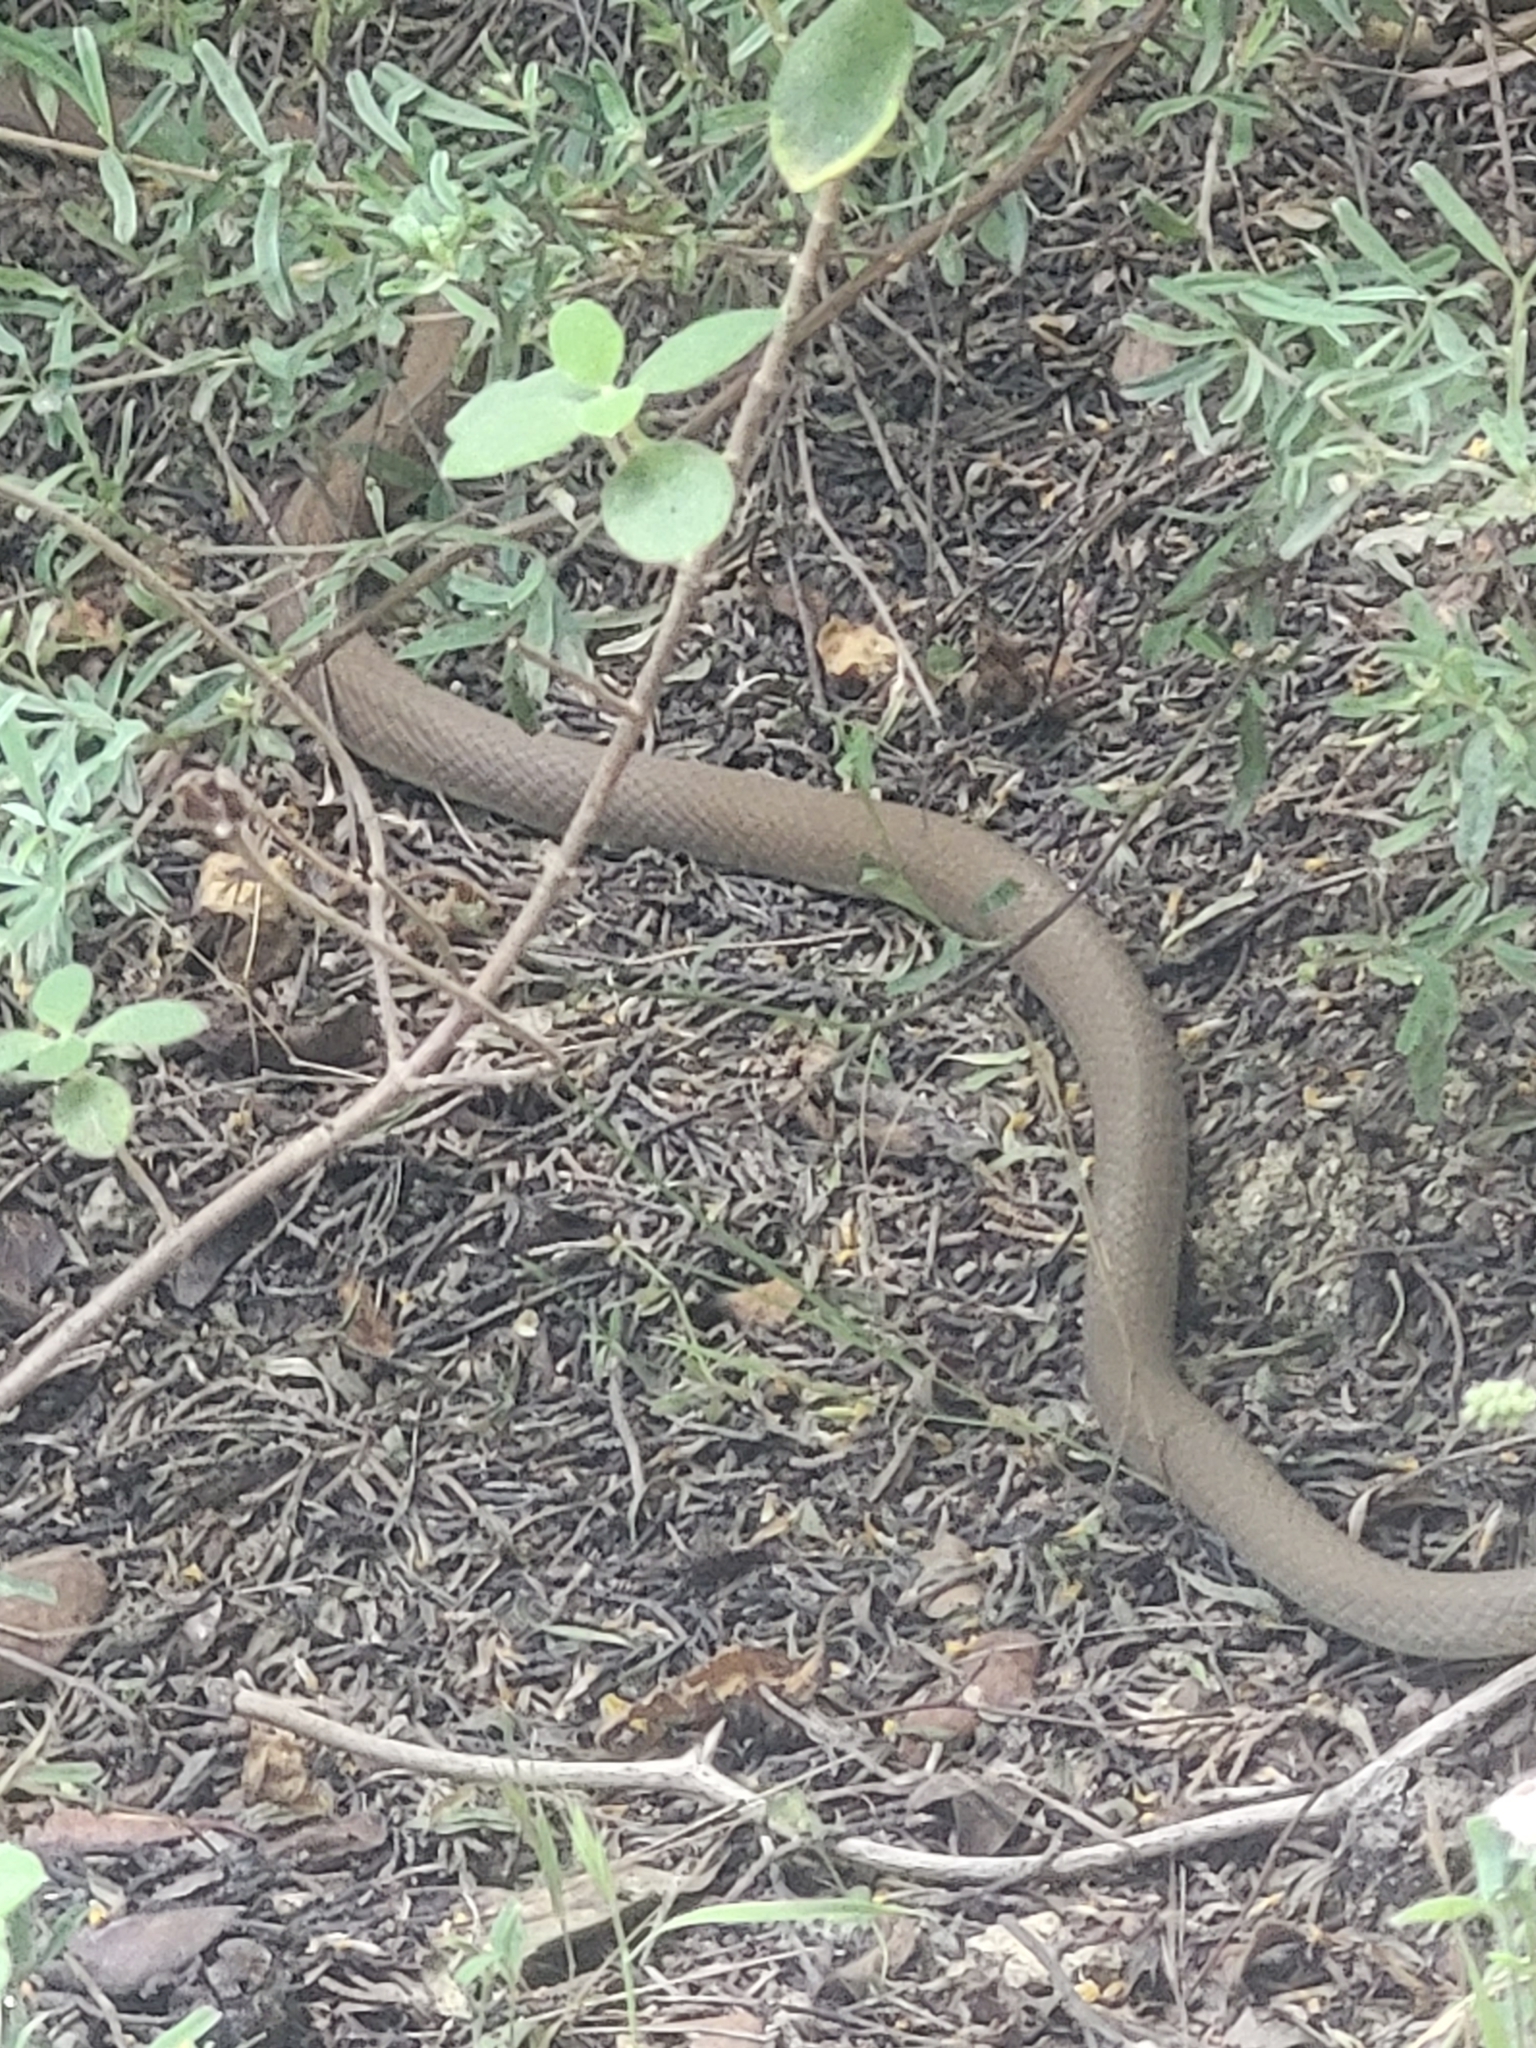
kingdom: Animalia
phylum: Chordata
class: Squamata
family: Psammophiidae
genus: Malpolon
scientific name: Malpolon insignitus
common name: Eastern montpellier snake
